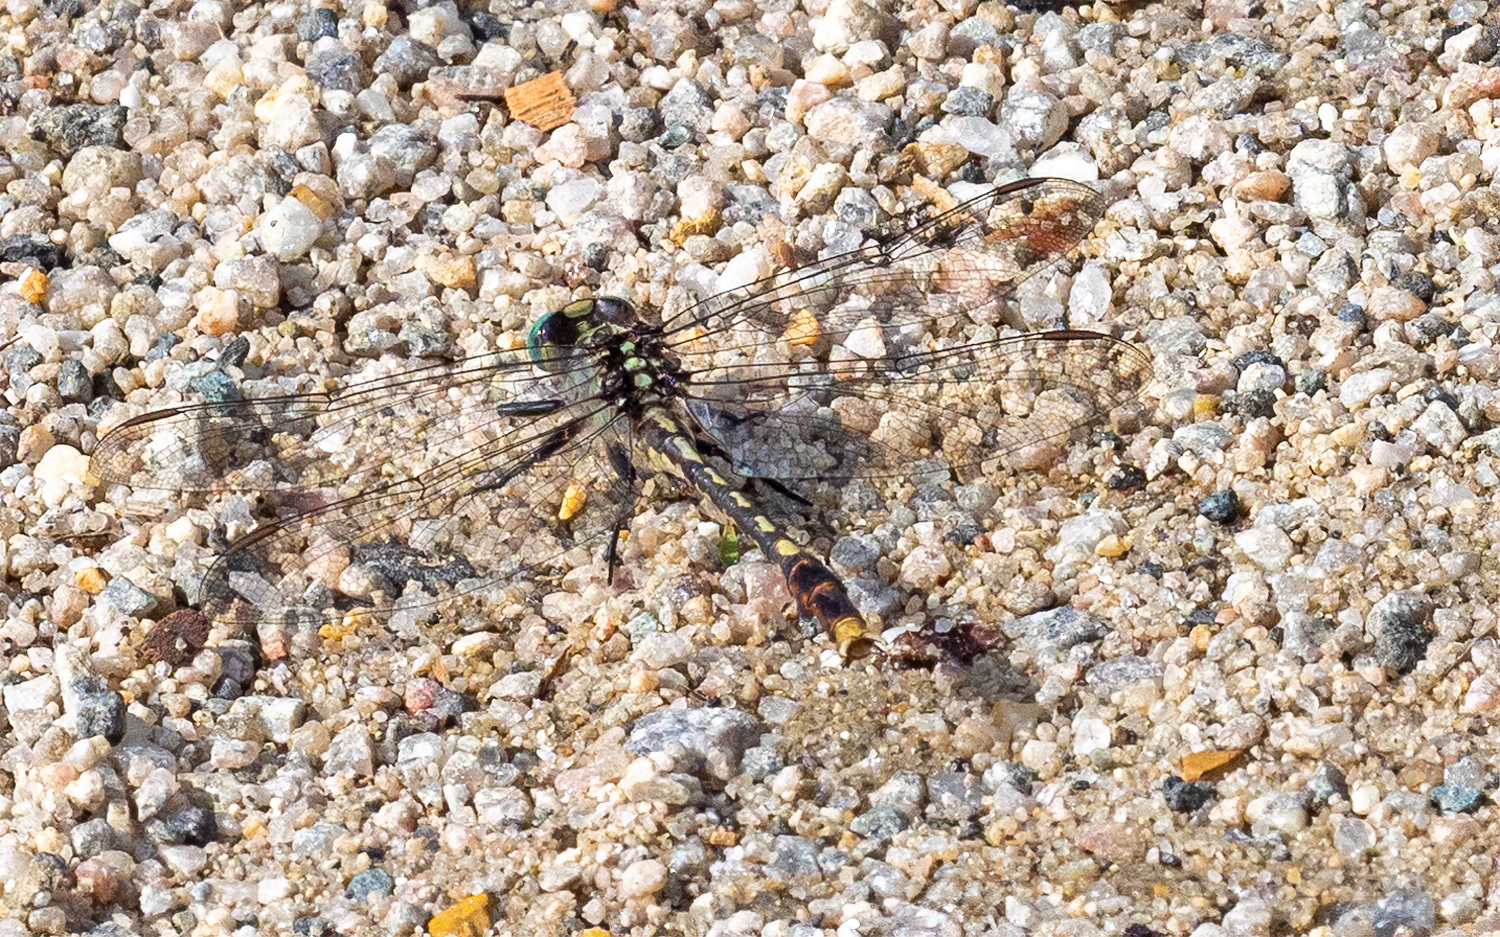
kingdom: Animalia
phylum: Arthropoda
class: Insecta
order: Odonata
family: Gomphidae
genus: Arigomphus
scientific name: Arigomphus villosipes
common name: Unicorn clubtail
